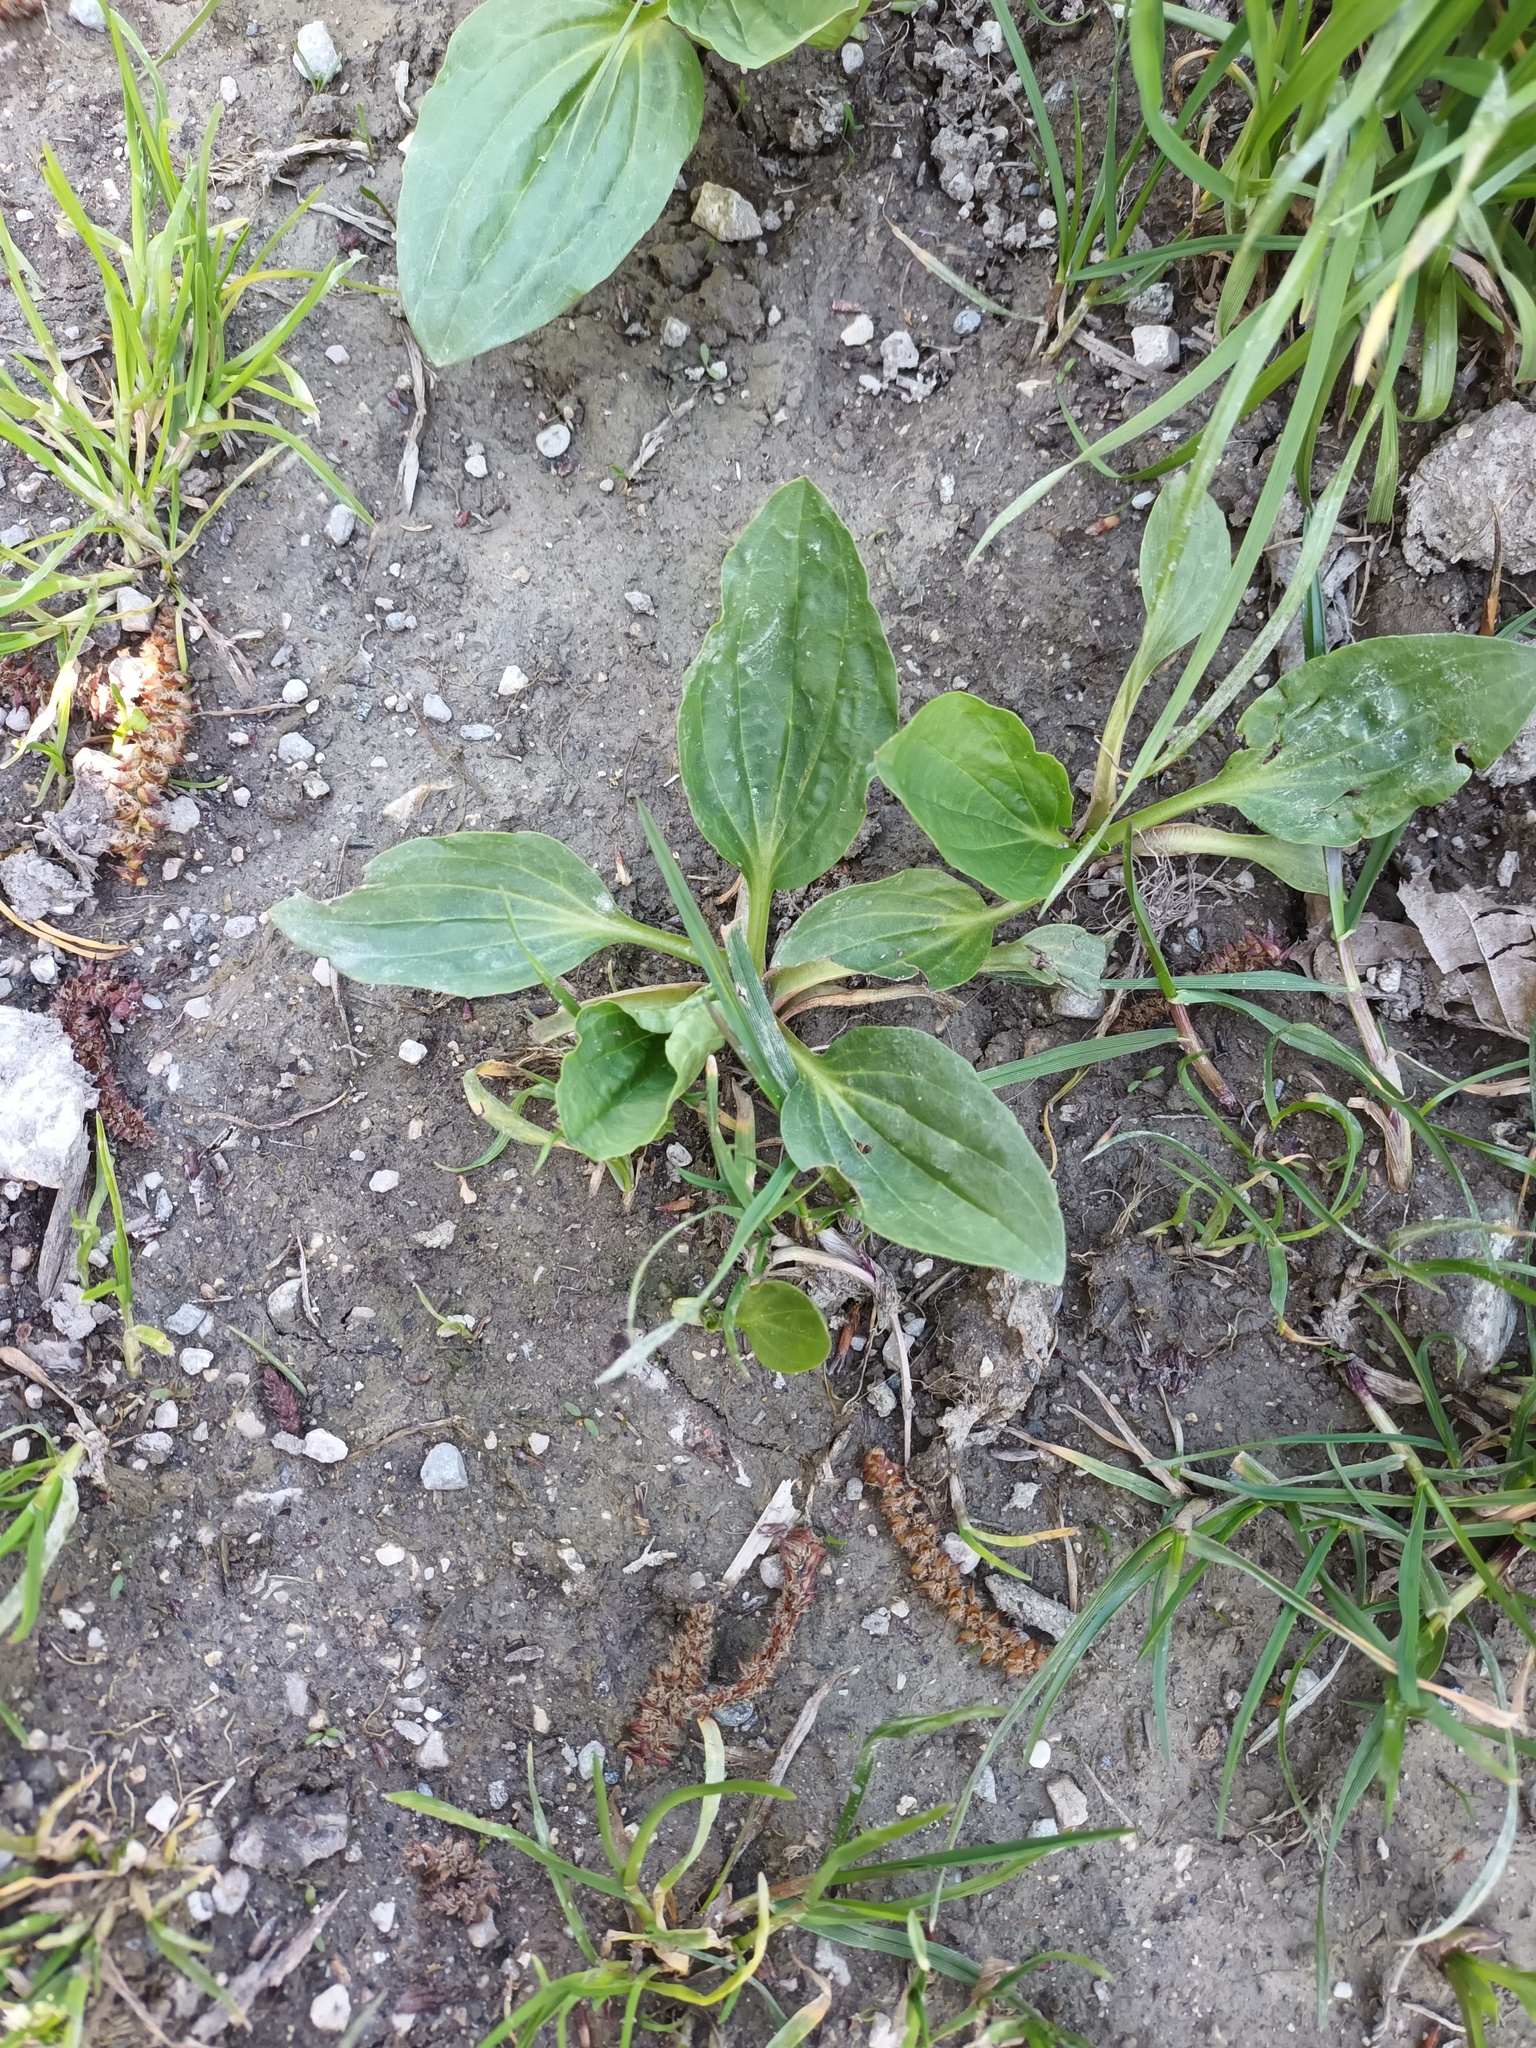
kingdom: Plantae
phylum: Tracheophyta
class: Magnoliopsida
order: Lamiales
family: Plantaginaceae
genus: Plantago
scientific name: Plantago major
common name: Common plantain
